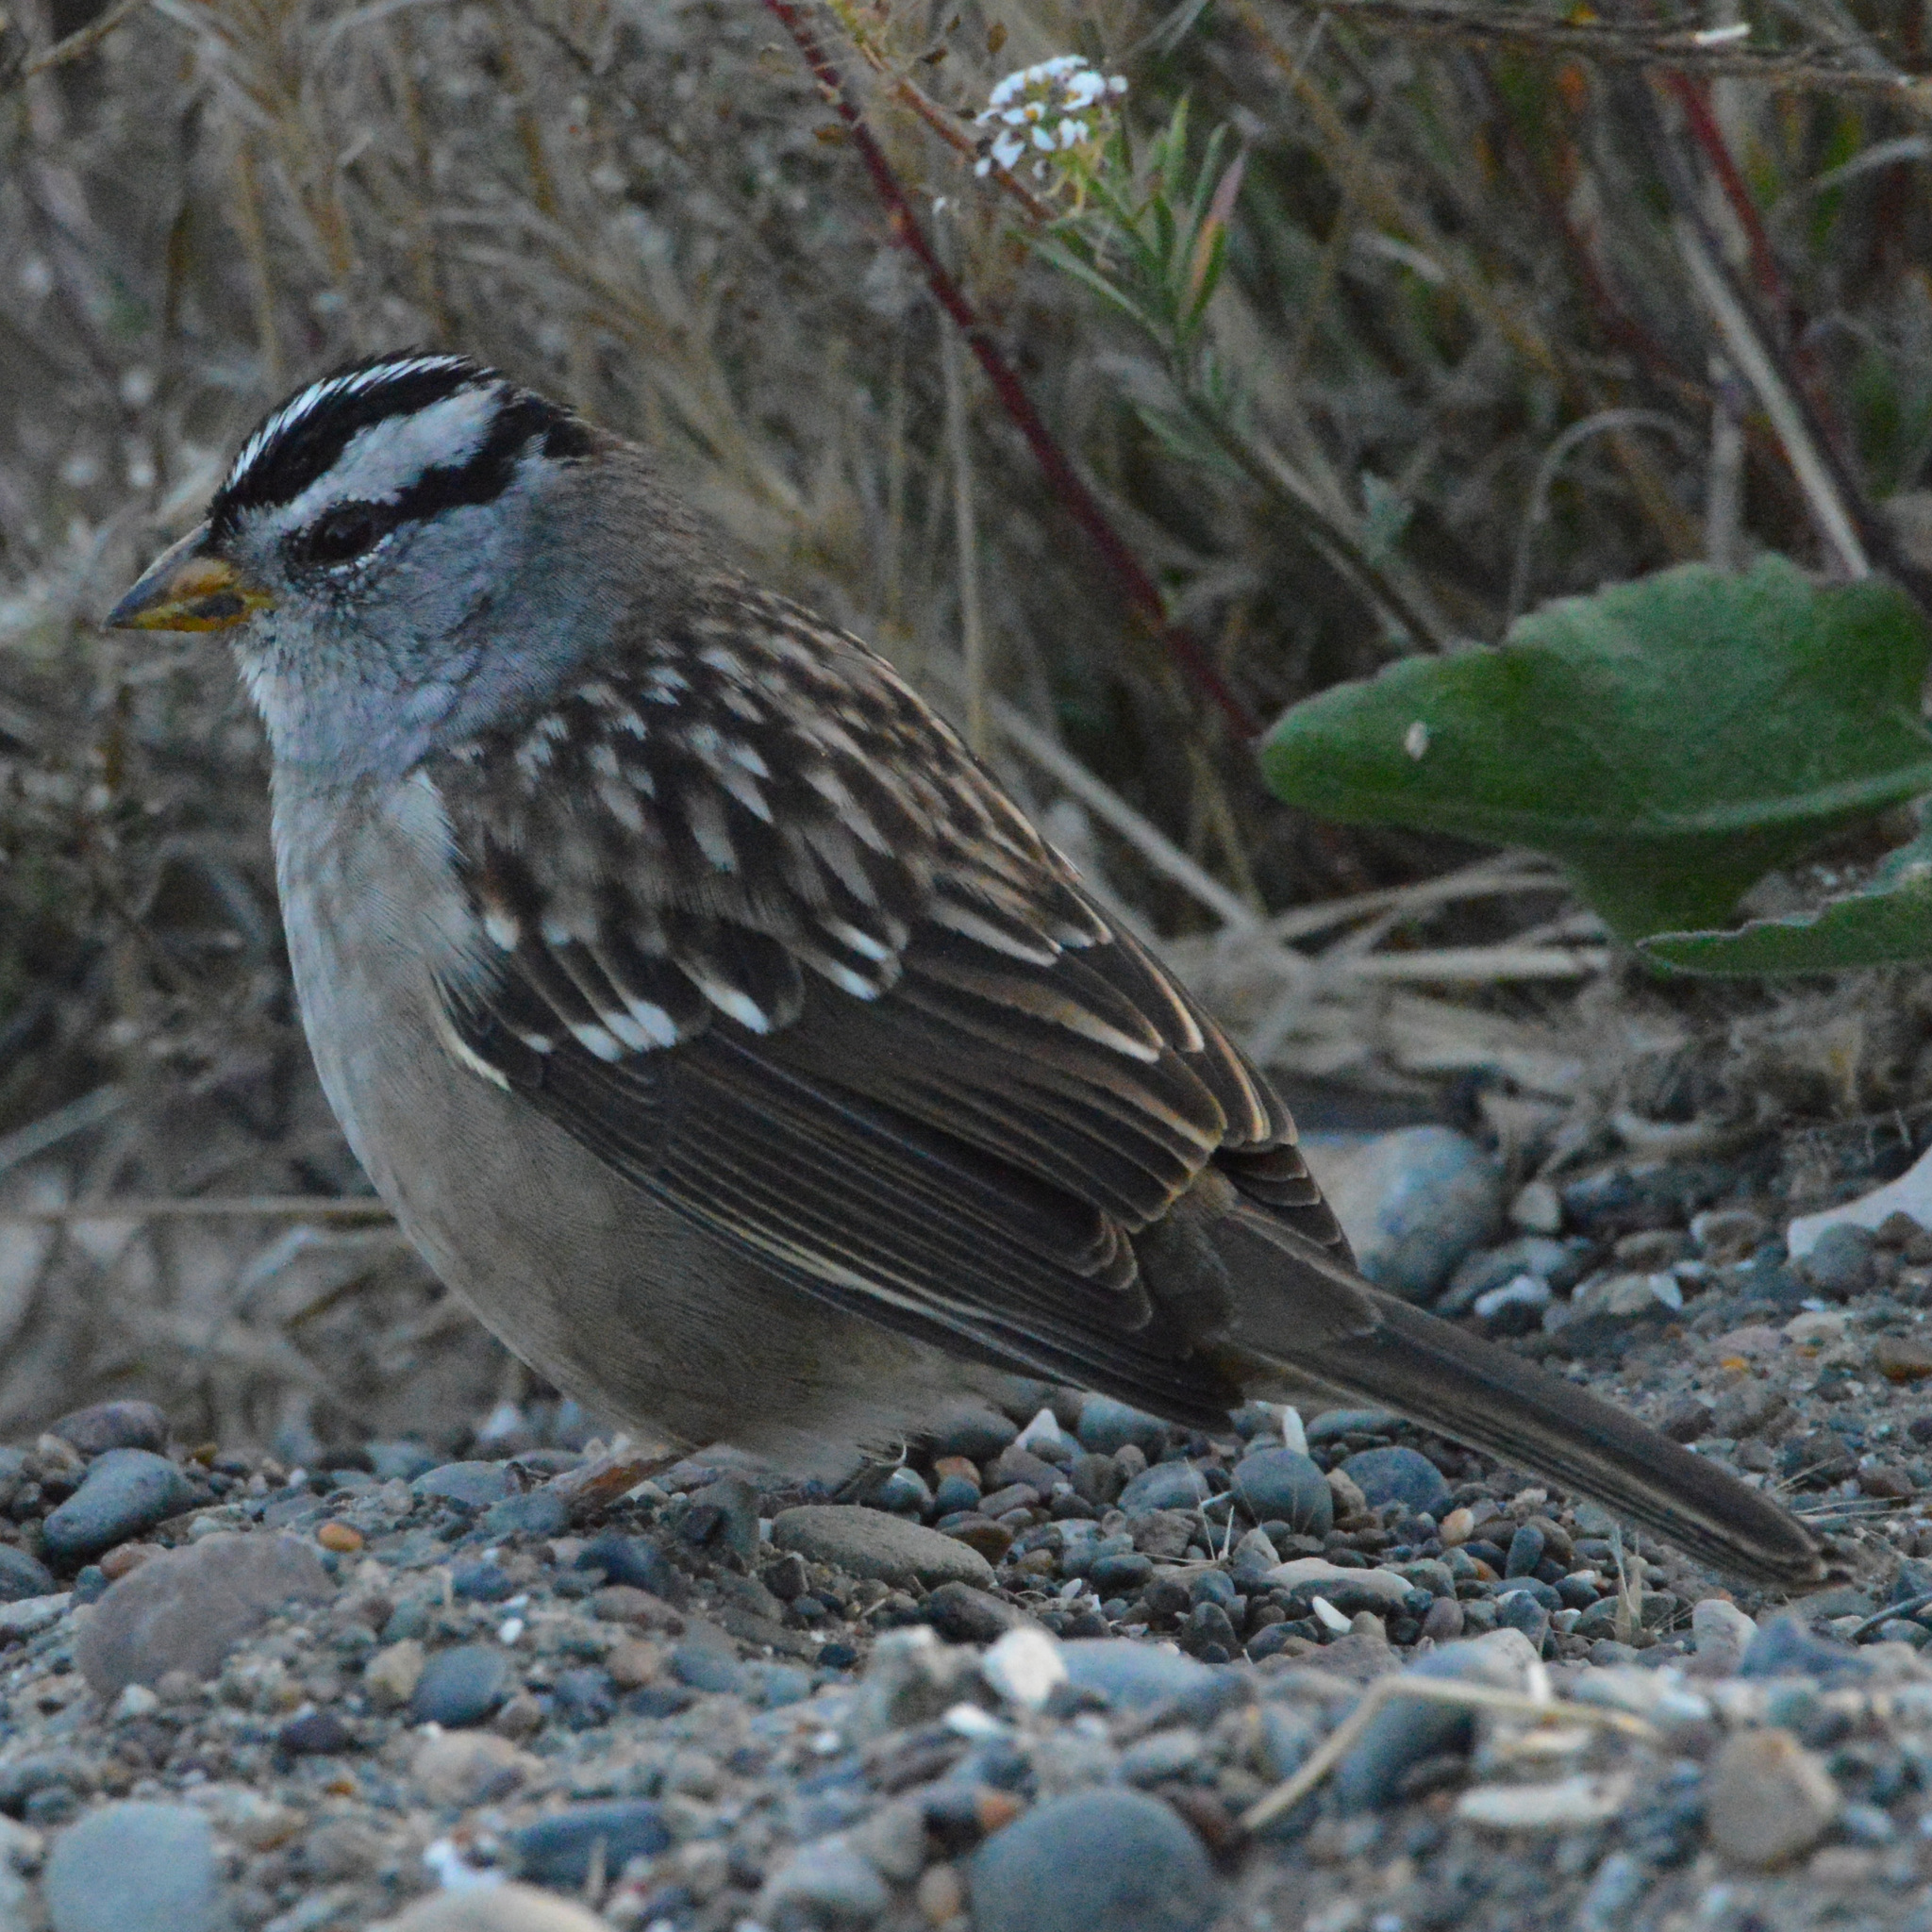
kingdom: Animalia
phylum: Chordata
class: Aves
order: Passeriformes
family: Passerellidae
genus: Zonotrichia
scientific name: Zonotrichia leucophrys
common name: White-crowned sparrow
